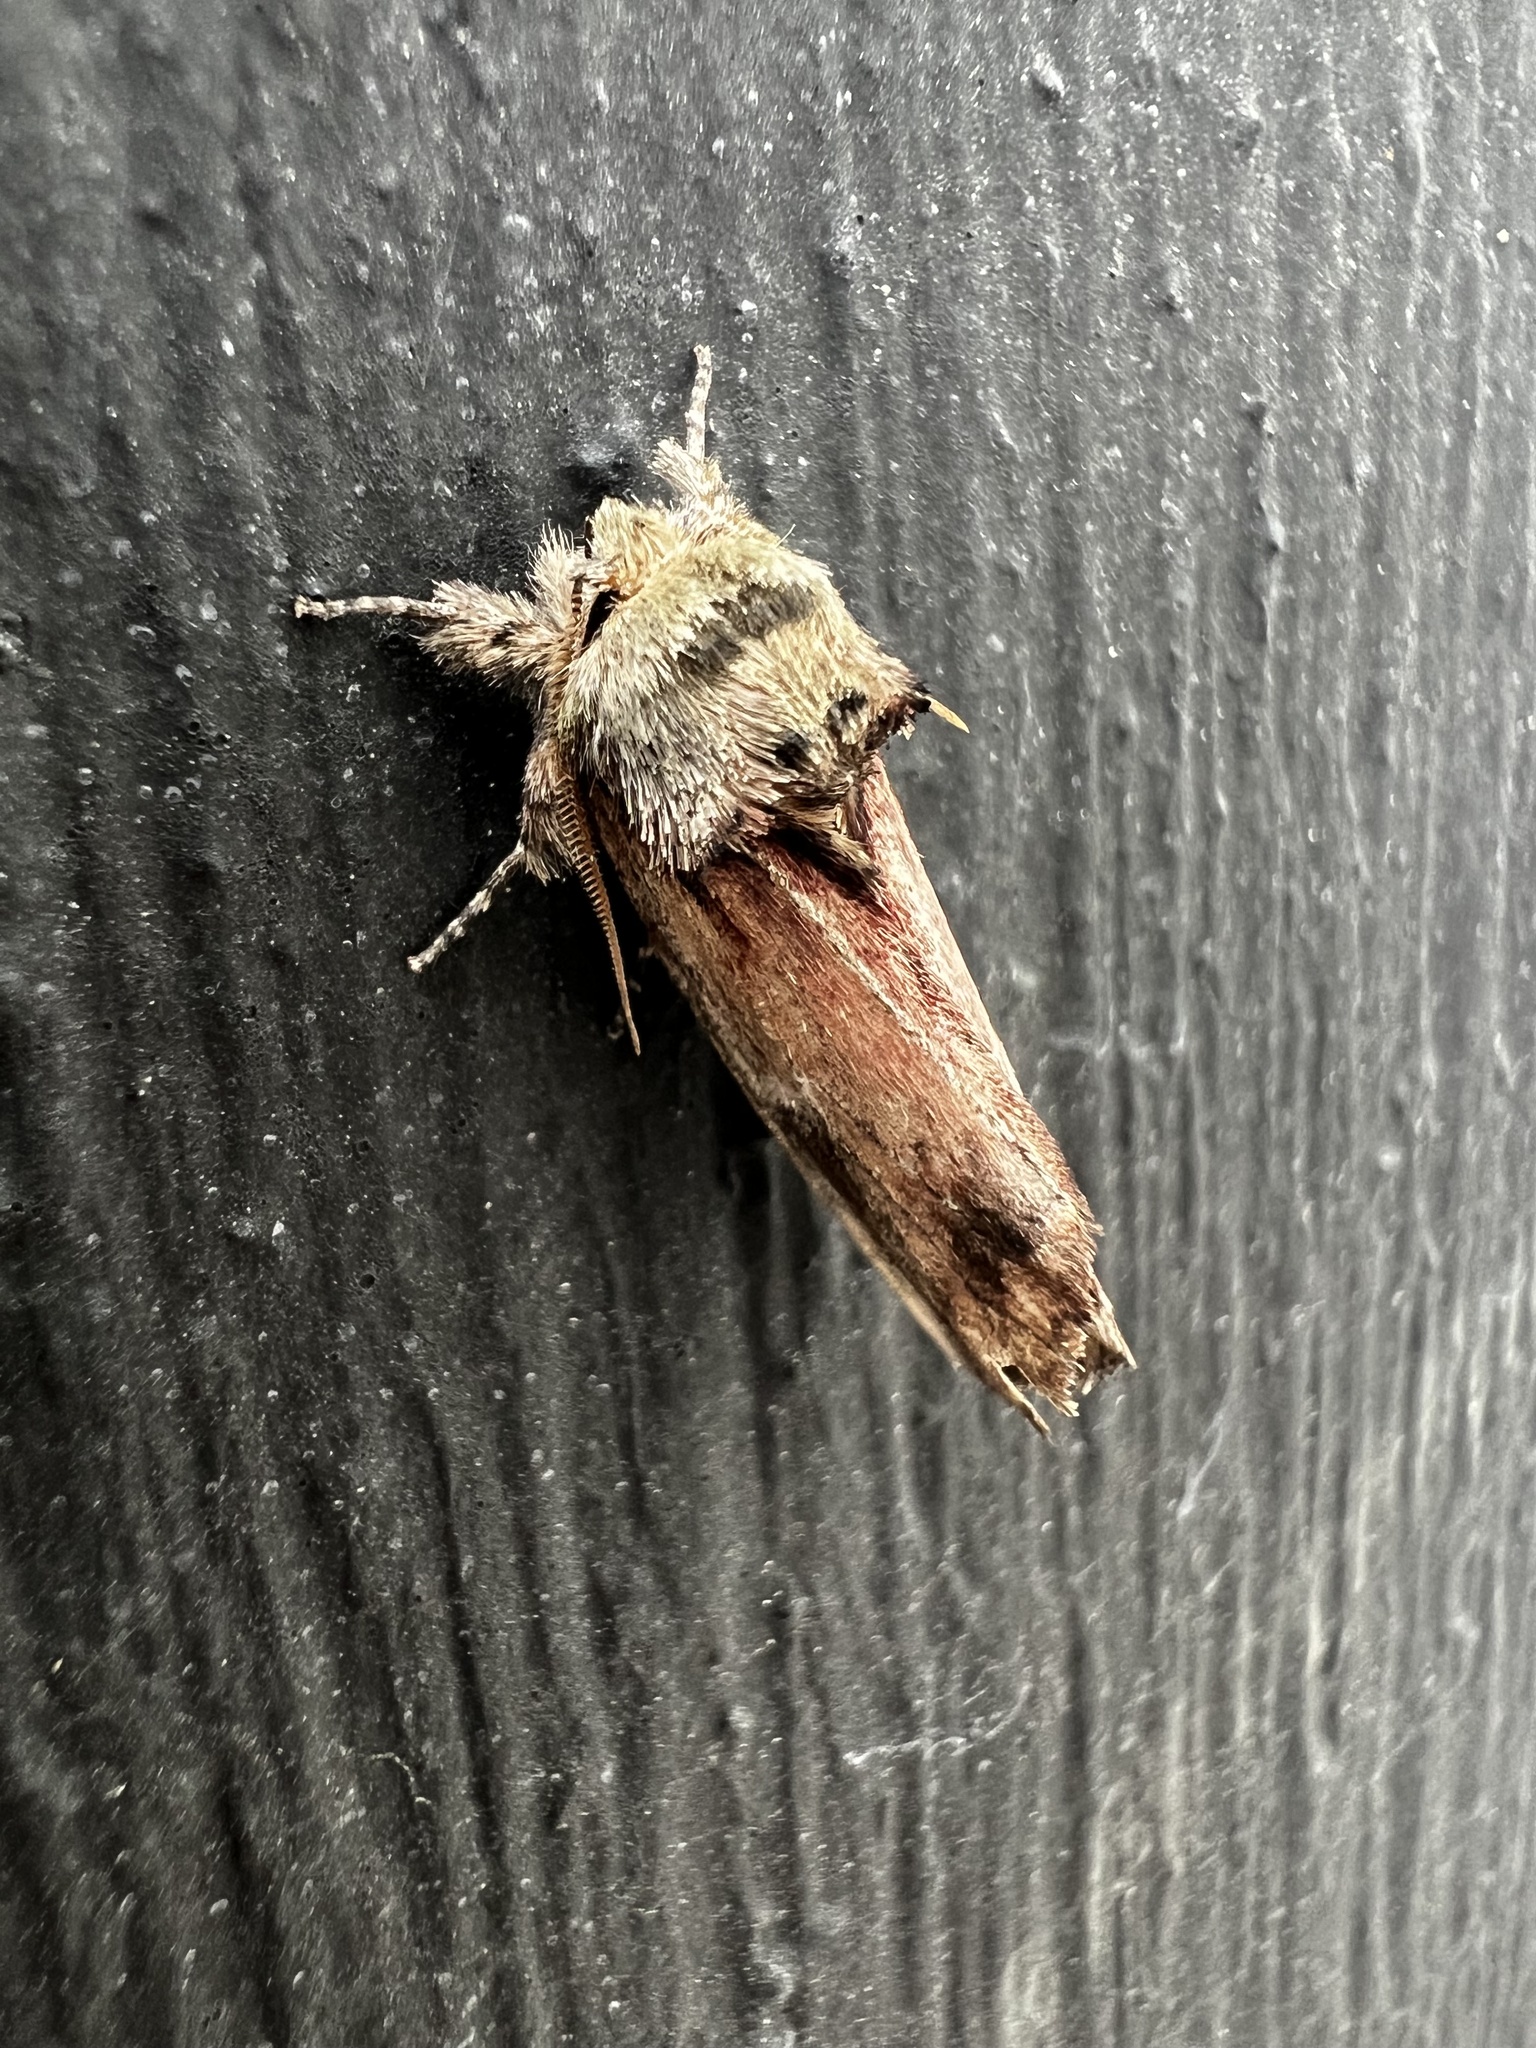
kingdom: Animalia
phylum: Arthropoda
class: Insecta
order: Lepidoptera
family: Notodontidae
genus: Schizura
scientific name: Schizura
